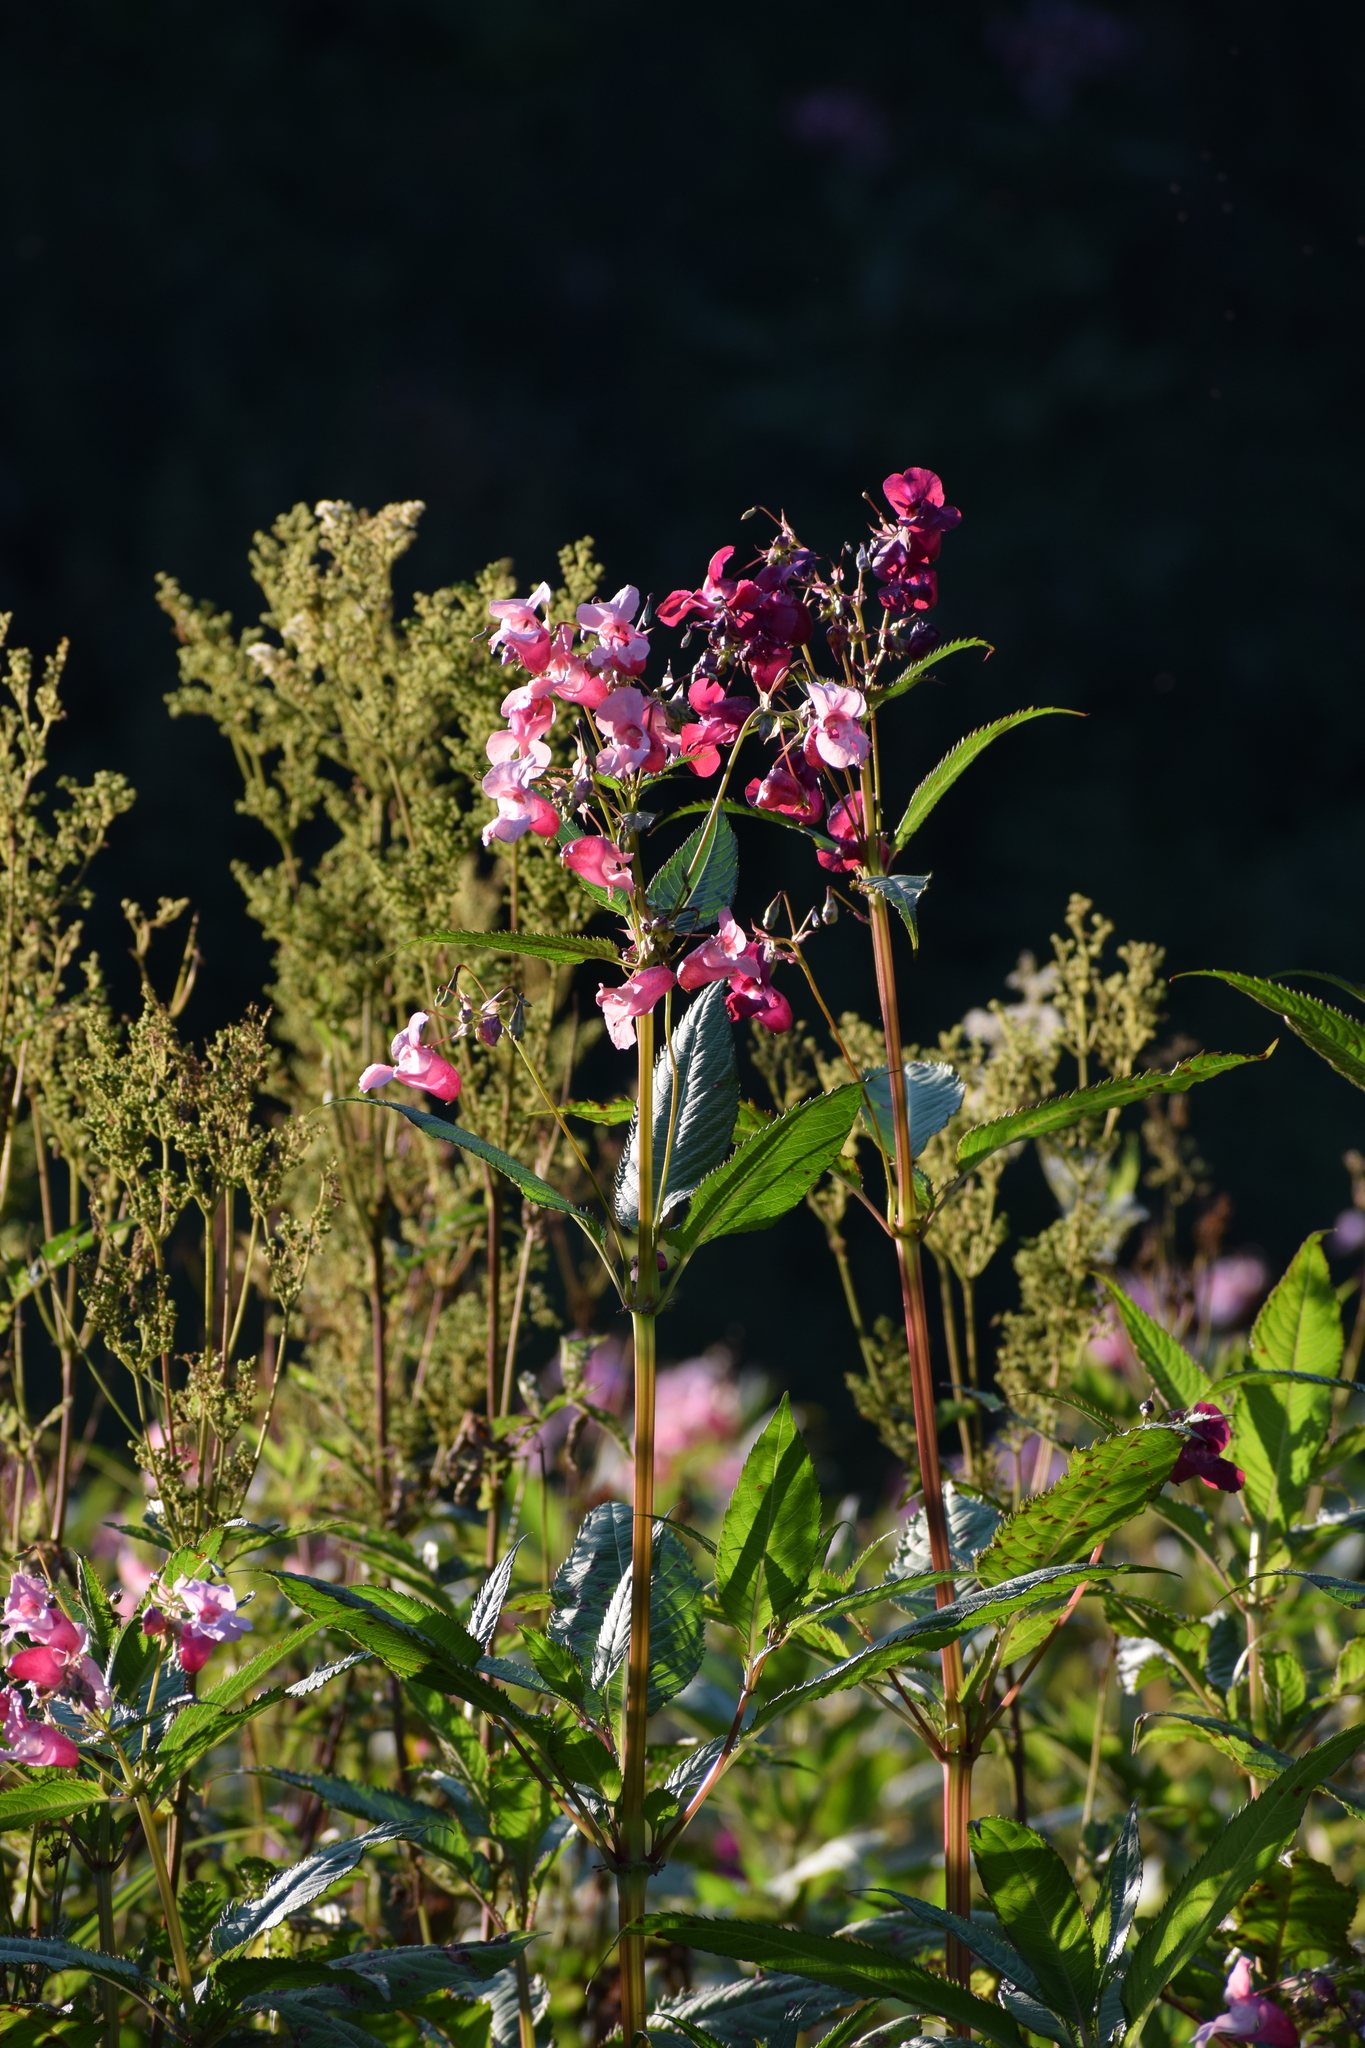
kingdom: Plantae
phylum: Tracheophyta
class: Magnoliopsida
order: Ericales
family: Balsaminaceae
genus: Impatiens
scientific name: Impatiens glandulifera
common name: Himalayan balsam
